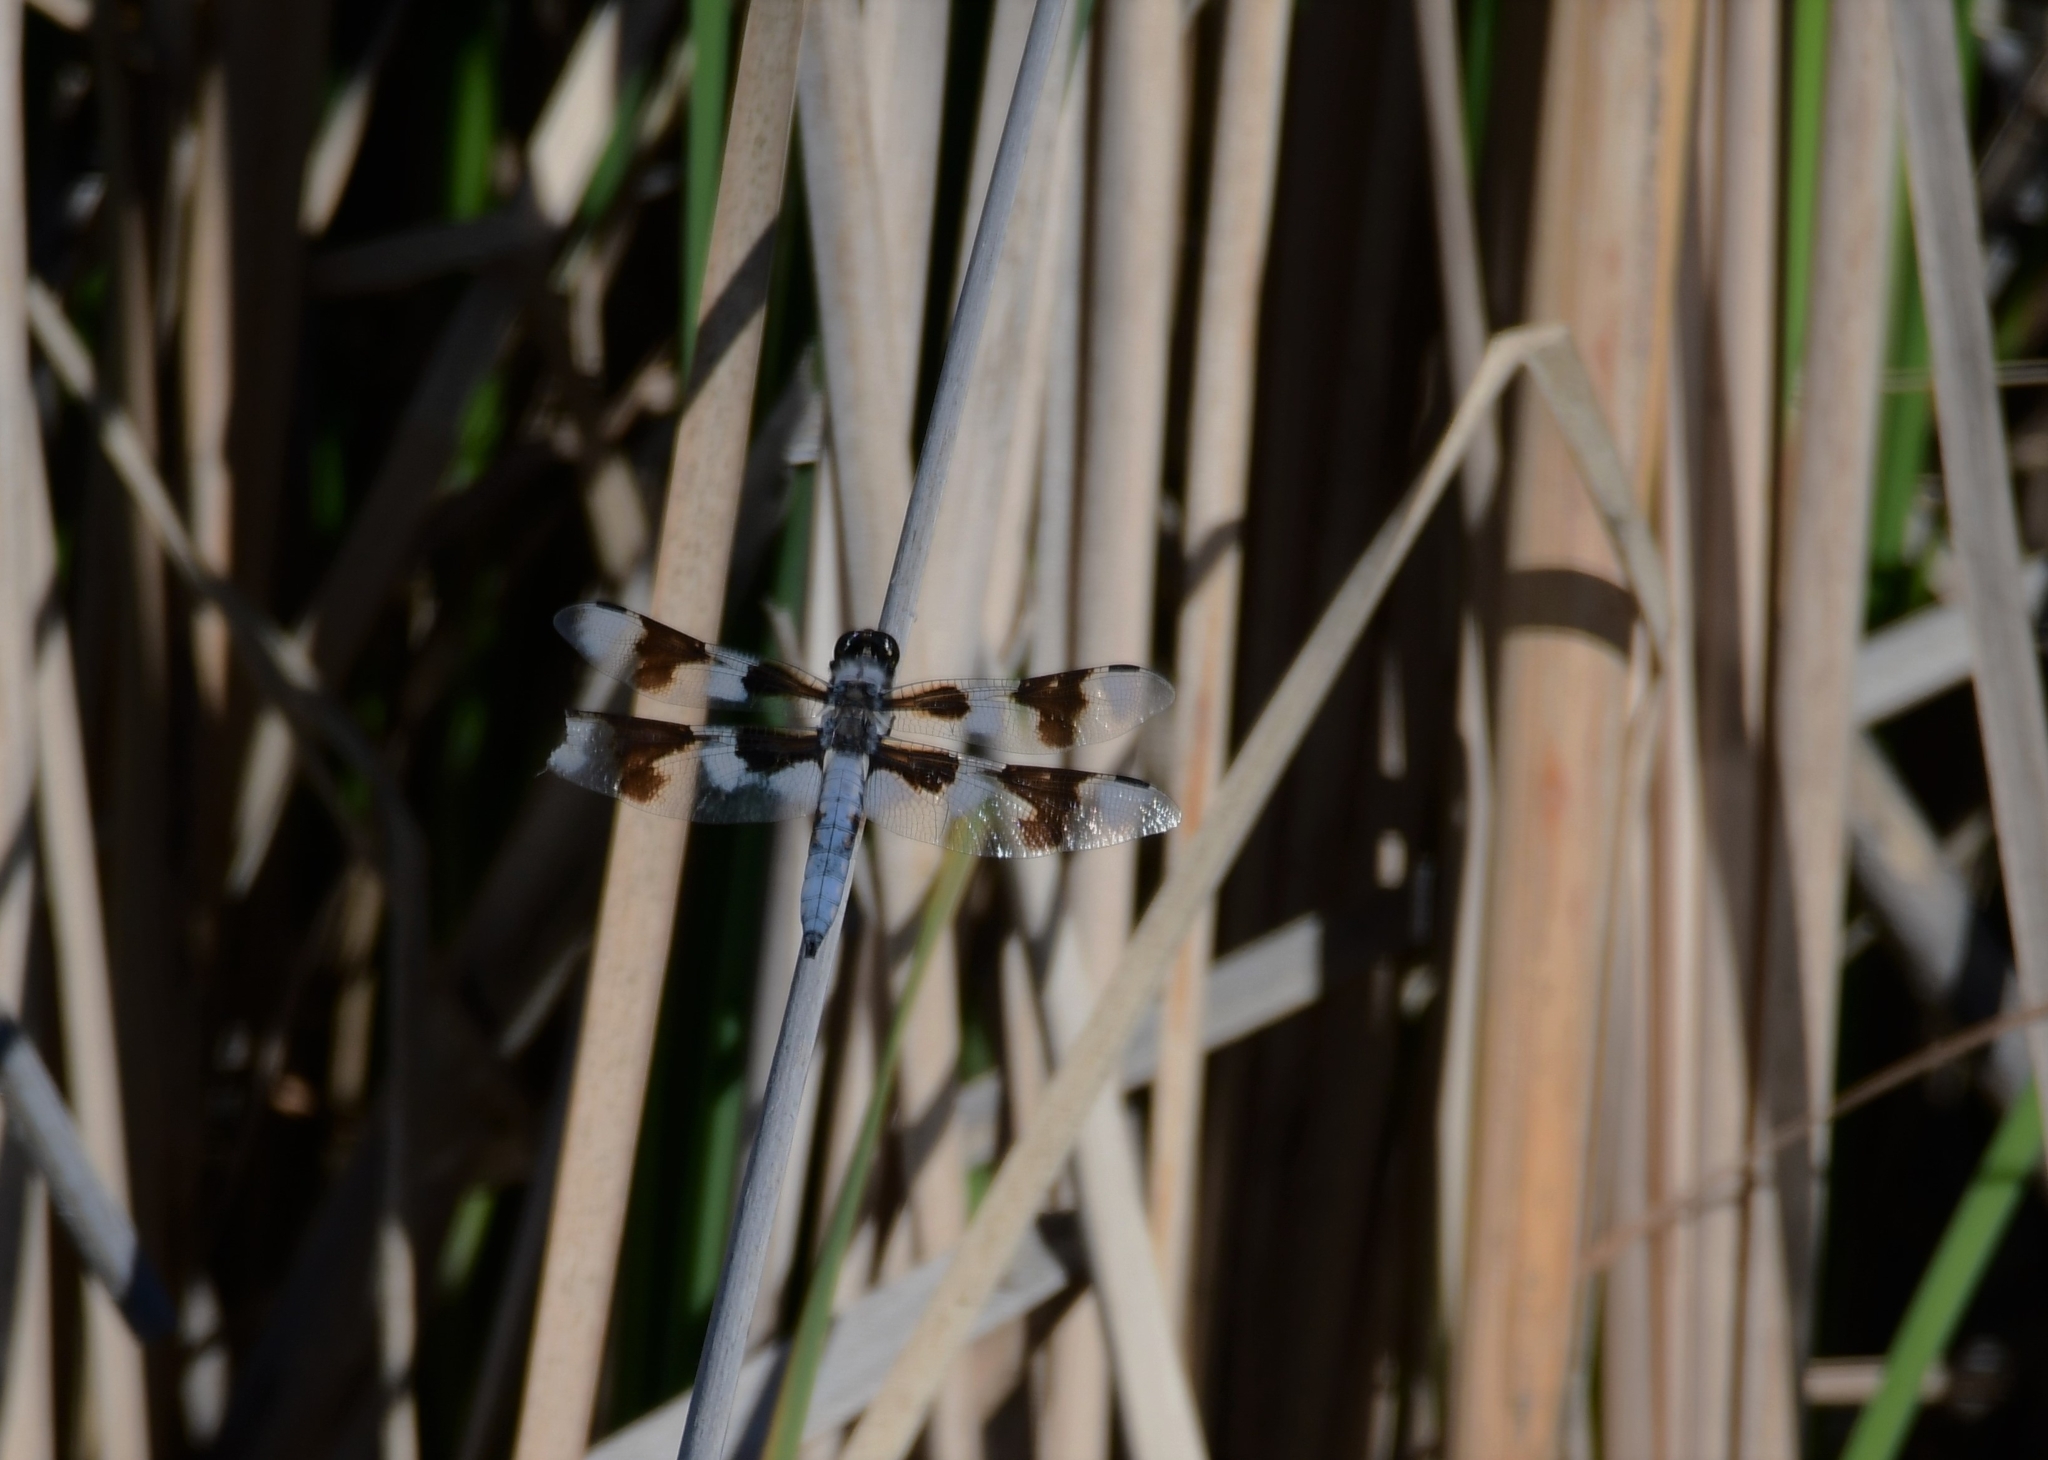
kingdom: Animalia
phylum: Arthropoda
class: Insecta
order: Odonata
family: Libellulidae
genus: Libellula
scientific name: Libellula forensis
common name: Eight-spotted skimmer
